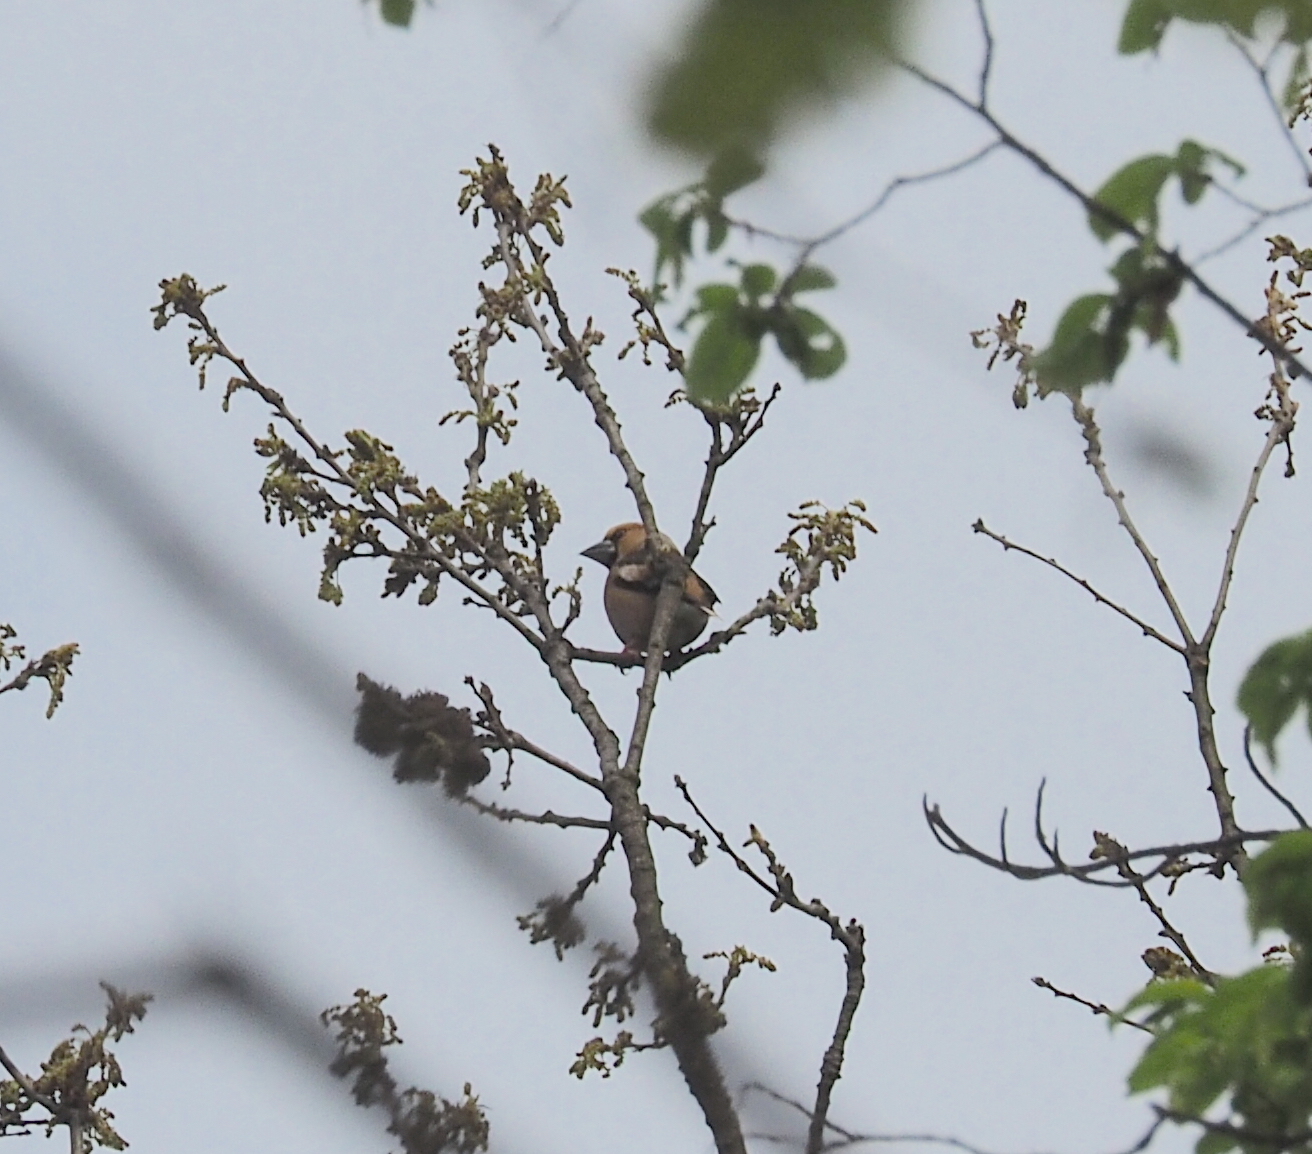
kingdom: Animalia
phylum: Chordata
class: Aves
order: Passeriformes
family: Fringillidae
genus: Coccothraustes
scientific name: Coccothraustes coccothraustes
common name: Hawfinch
